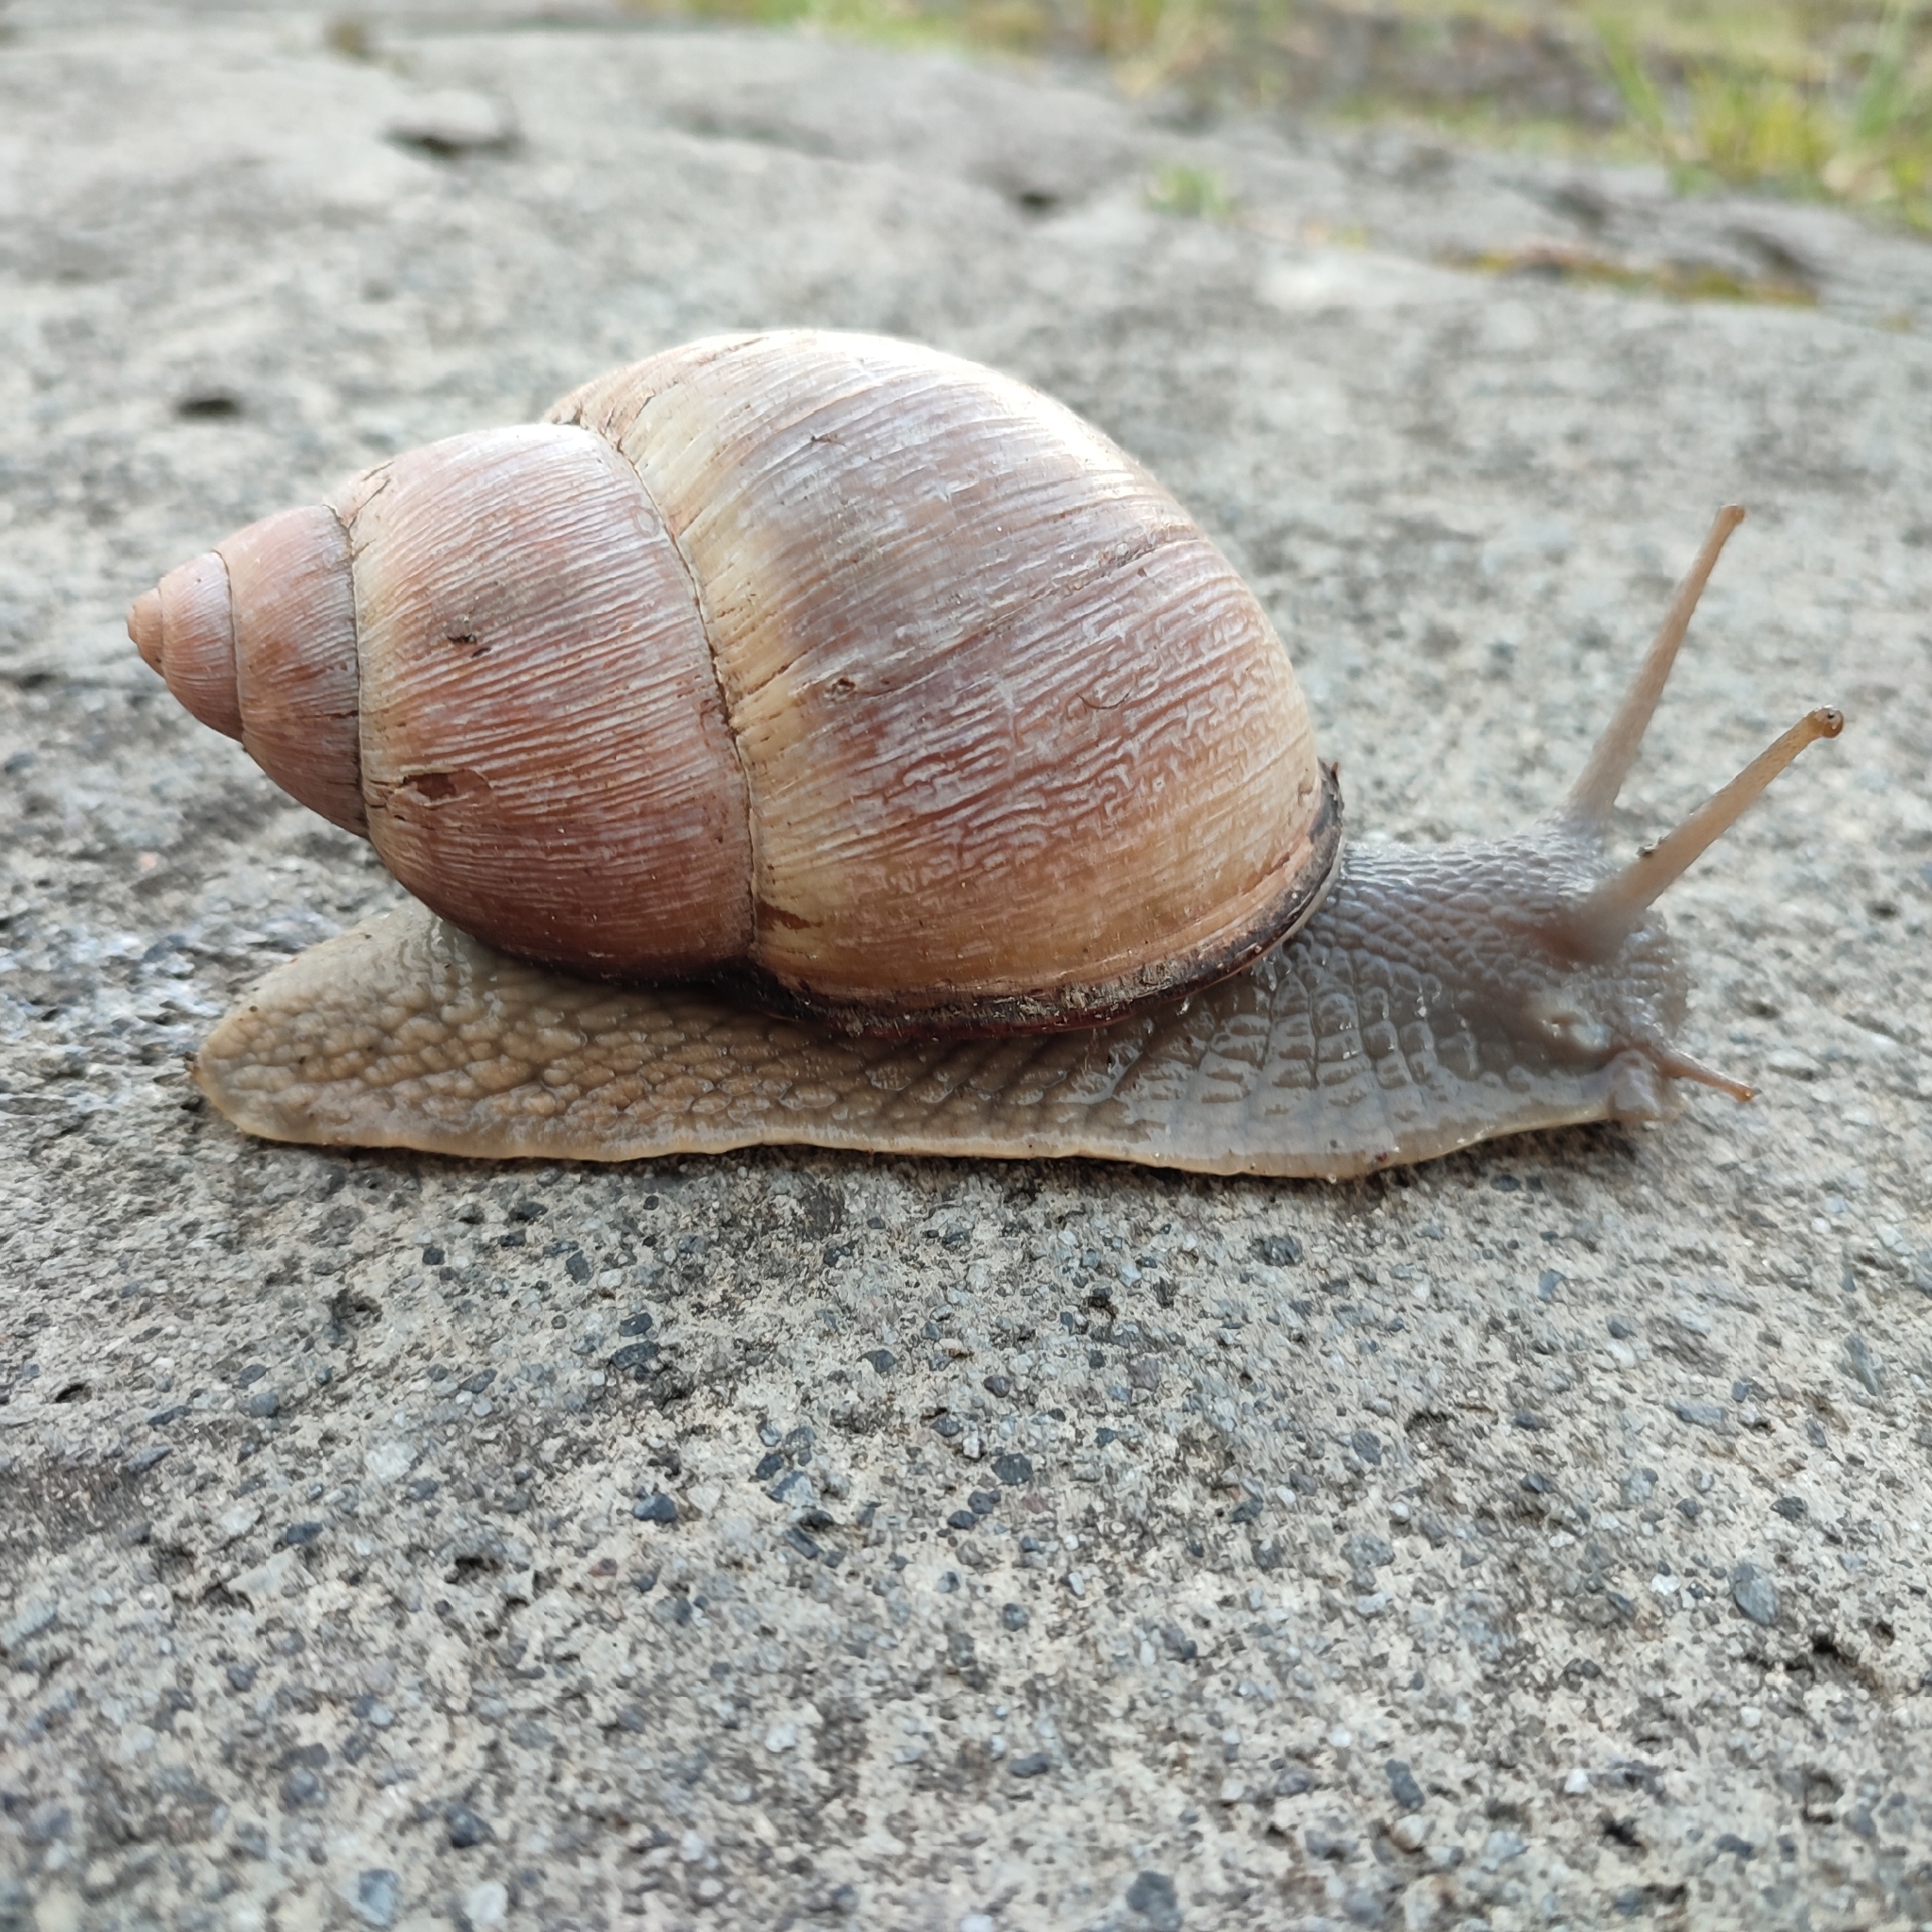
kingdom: Animalia
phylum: Mollusca
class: Gastropoda
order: Stylommatophora
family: Strophocheilidae
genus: Megalobulimus
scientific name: Megalobulimus oblongus
